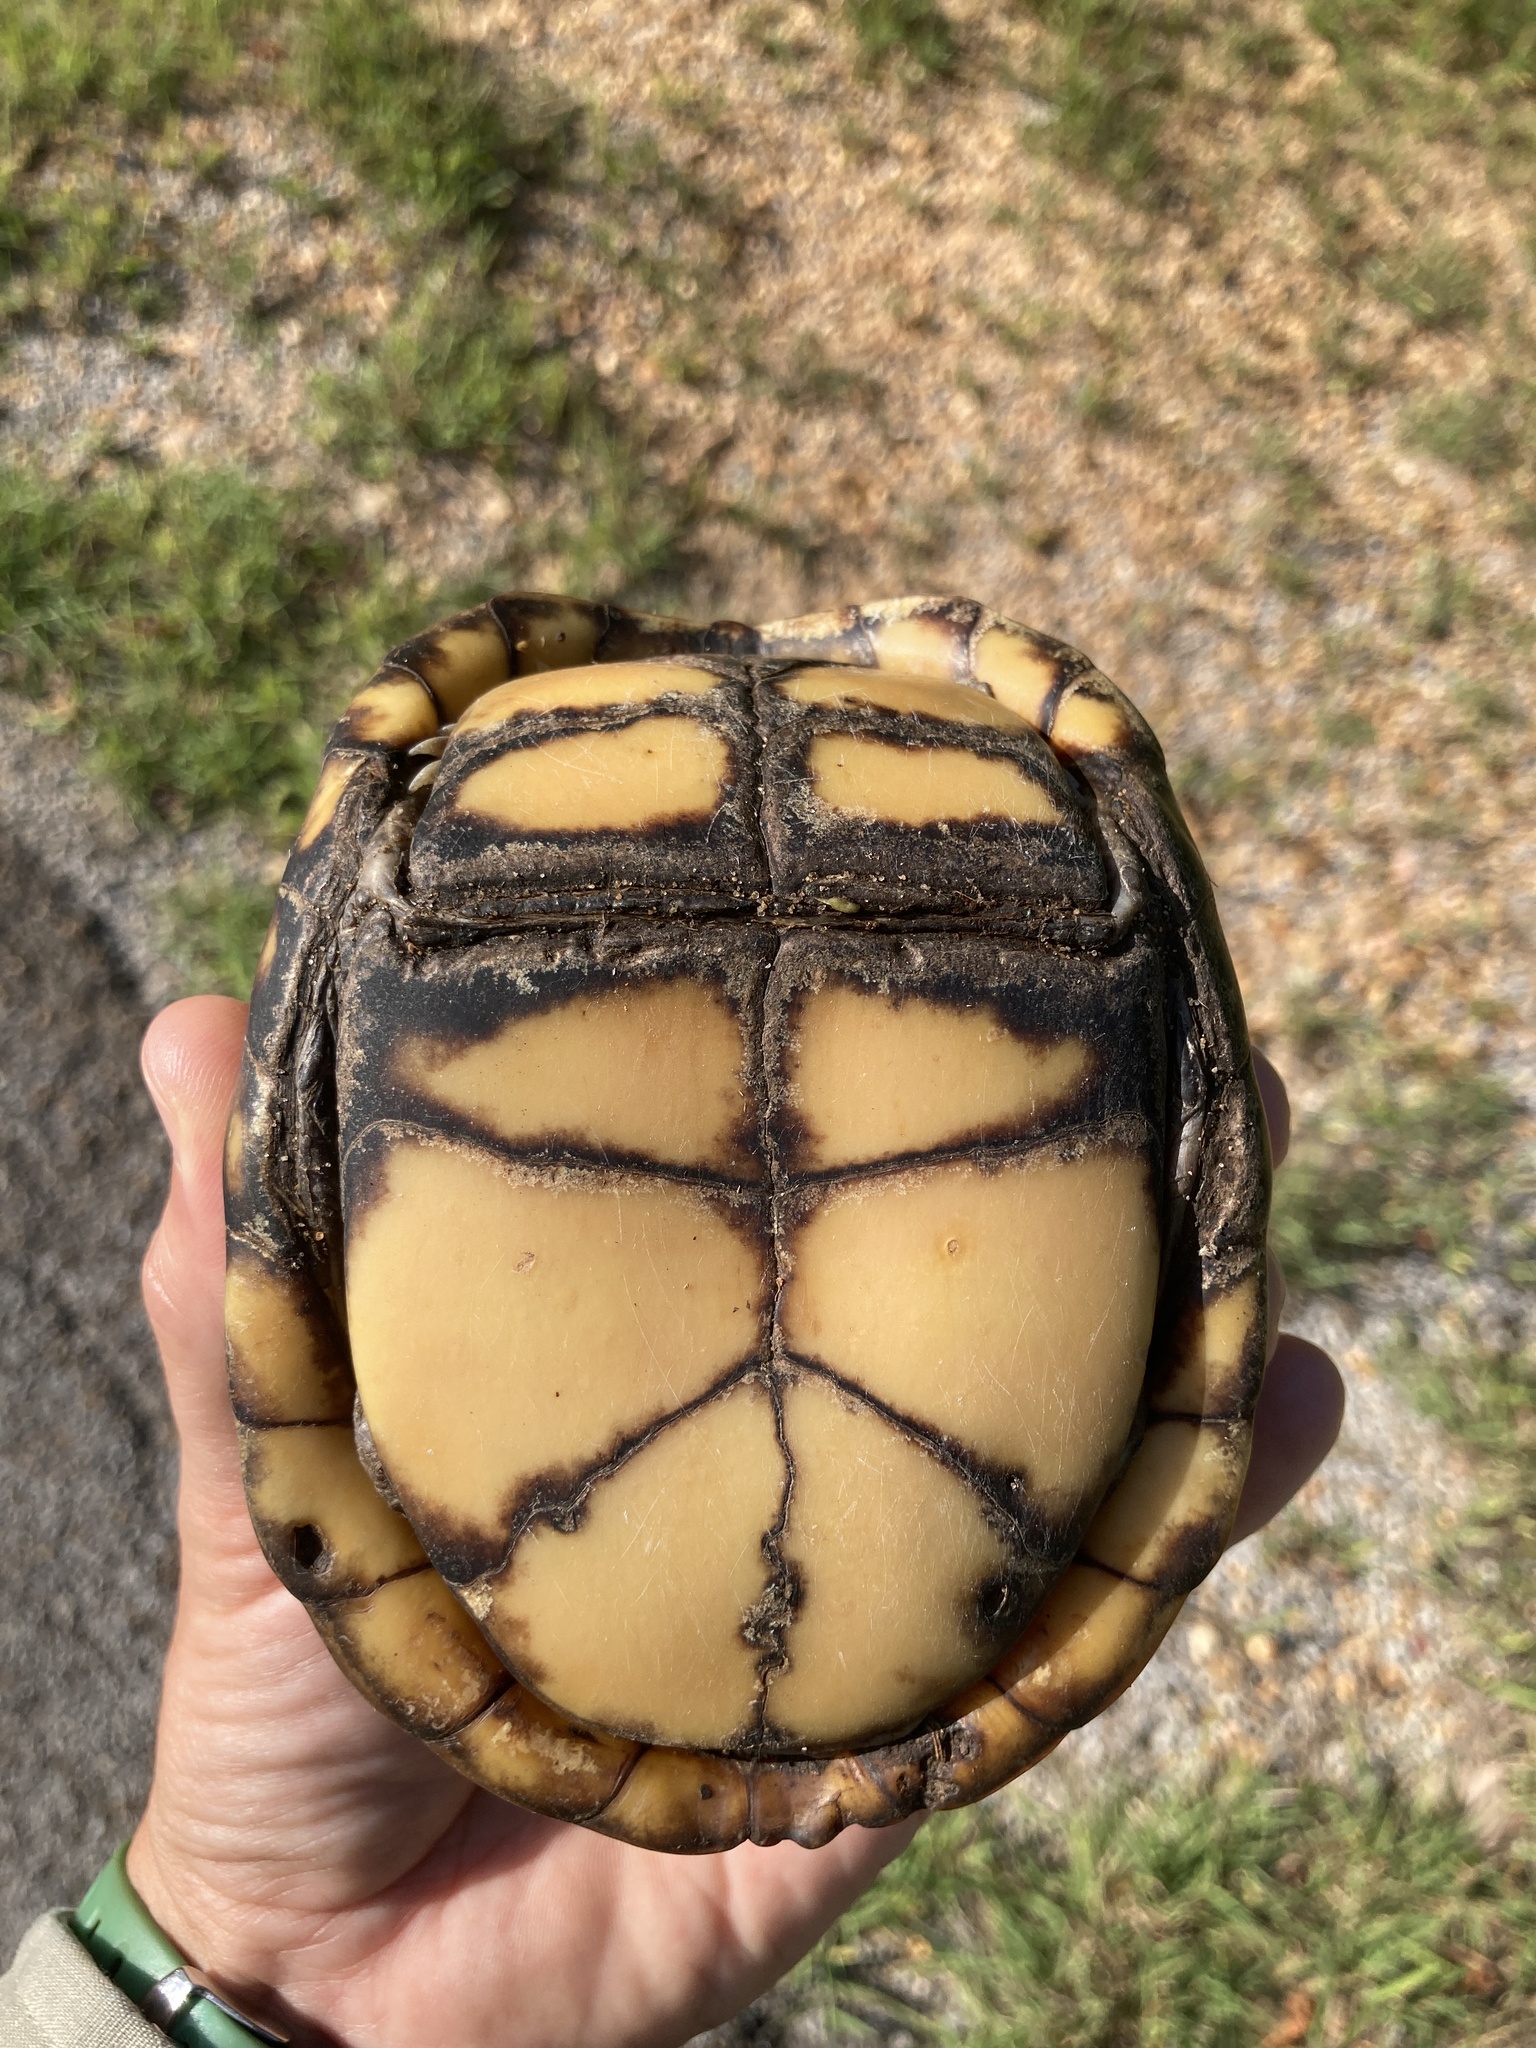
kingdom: Animalia
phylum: Chordata
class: Testudines
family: Emydidae
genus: Terrapene
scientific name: Terrapene carolina
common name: Common box turtle
